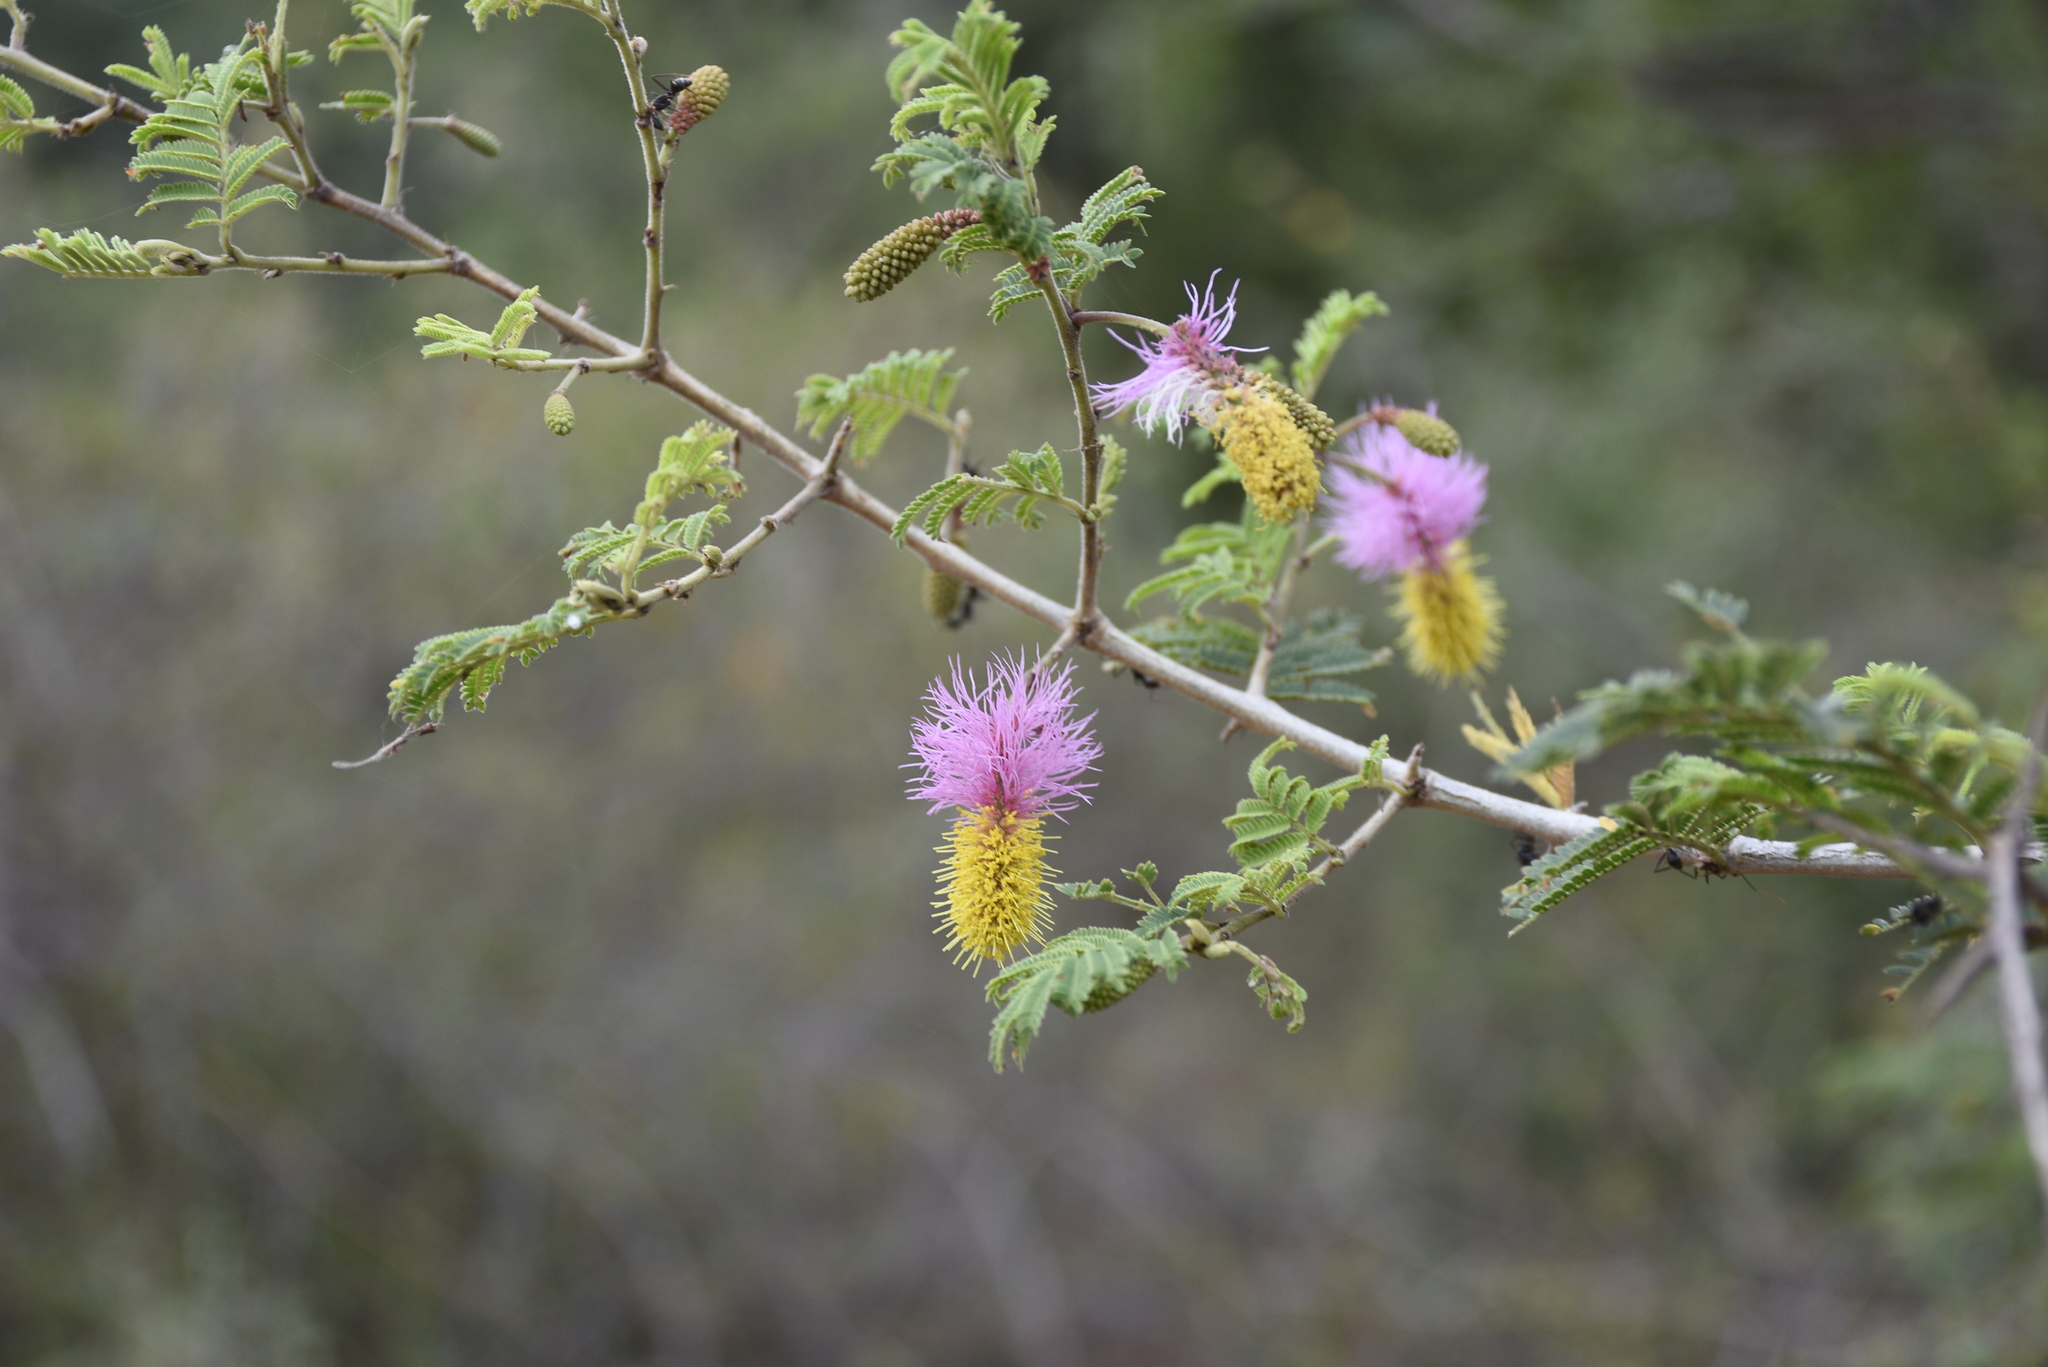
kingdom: Plantae
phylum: Tracheophyta
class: Magnoliopsida
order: Fabales
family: Fabaceae
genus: Dichrostachys
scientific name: Dichrostachys cinerea
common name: Sicklebush
